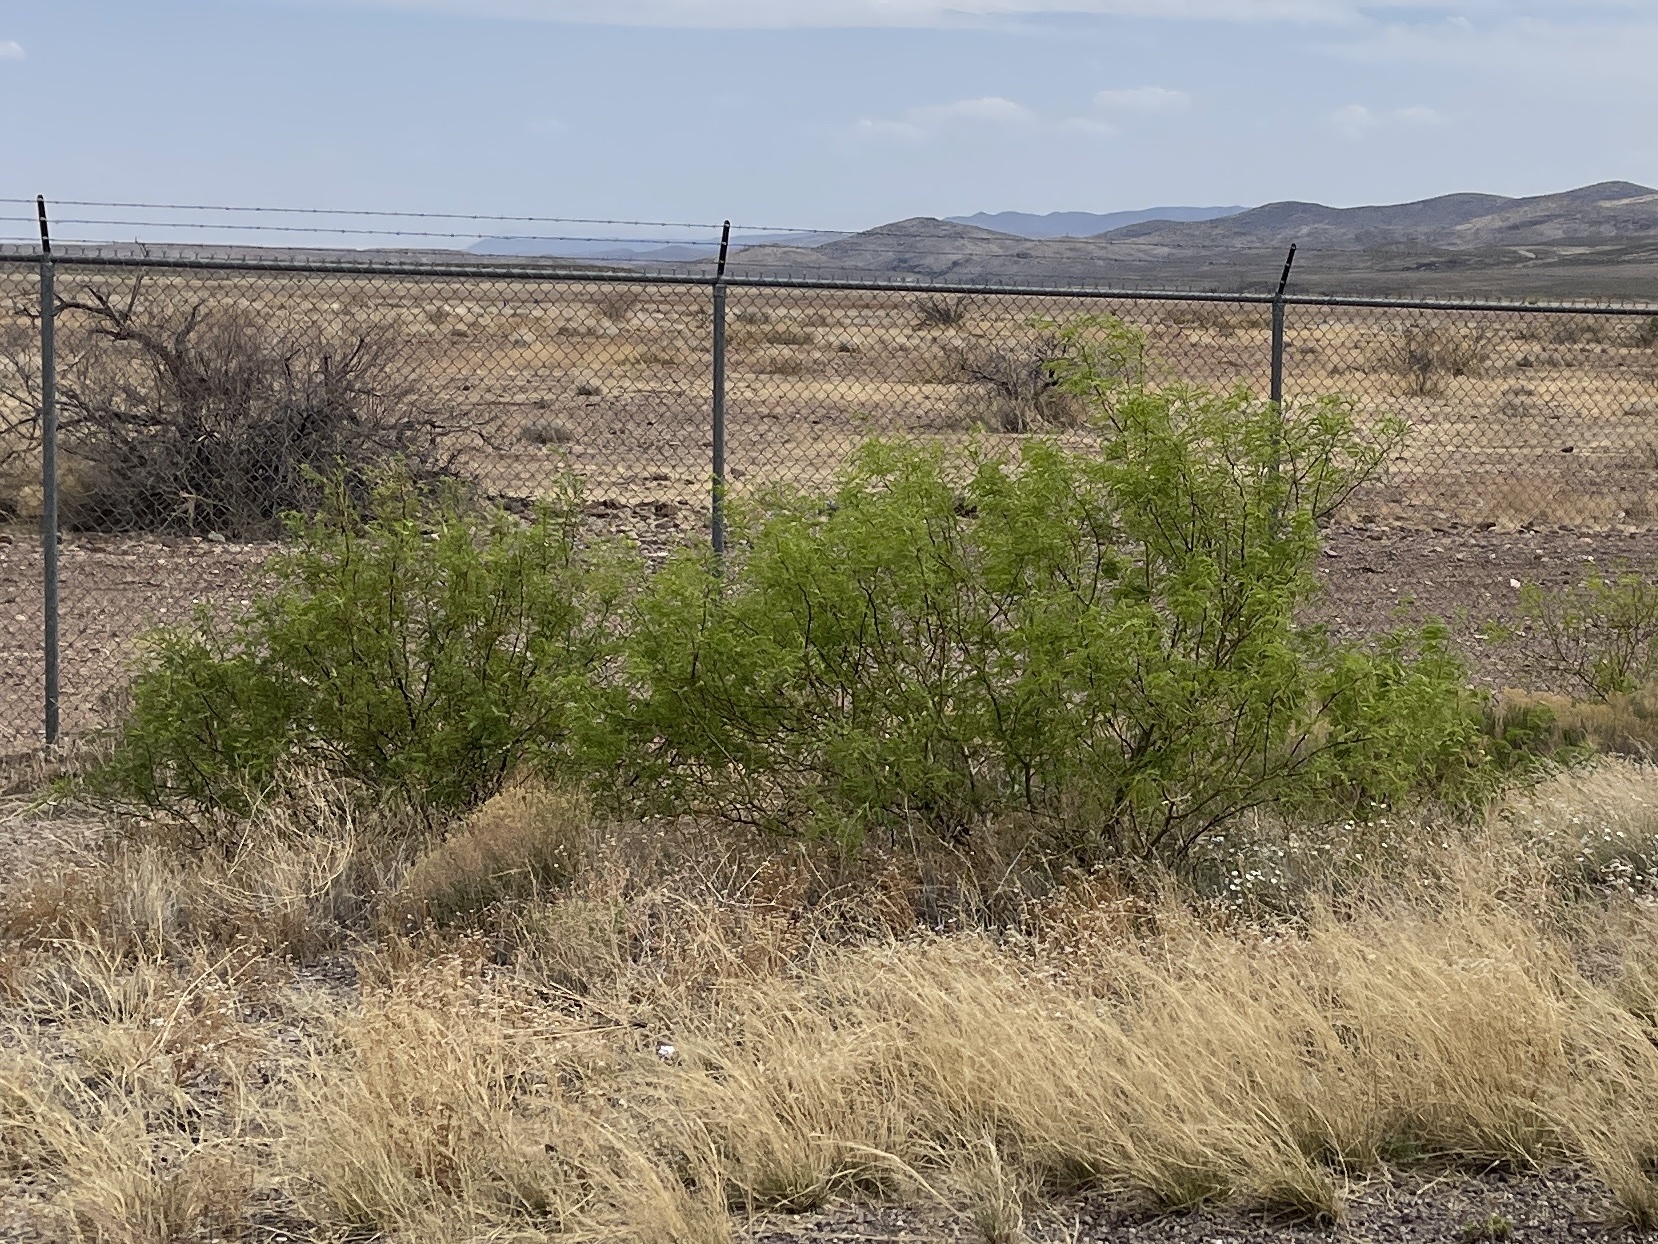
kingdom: Plantae
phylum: Tracheophyta
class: Magnoliopsida
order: Fabales
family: Fabaceae
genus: Prosopis
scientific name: Prosopis glandulosa
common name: Honey mesquite
